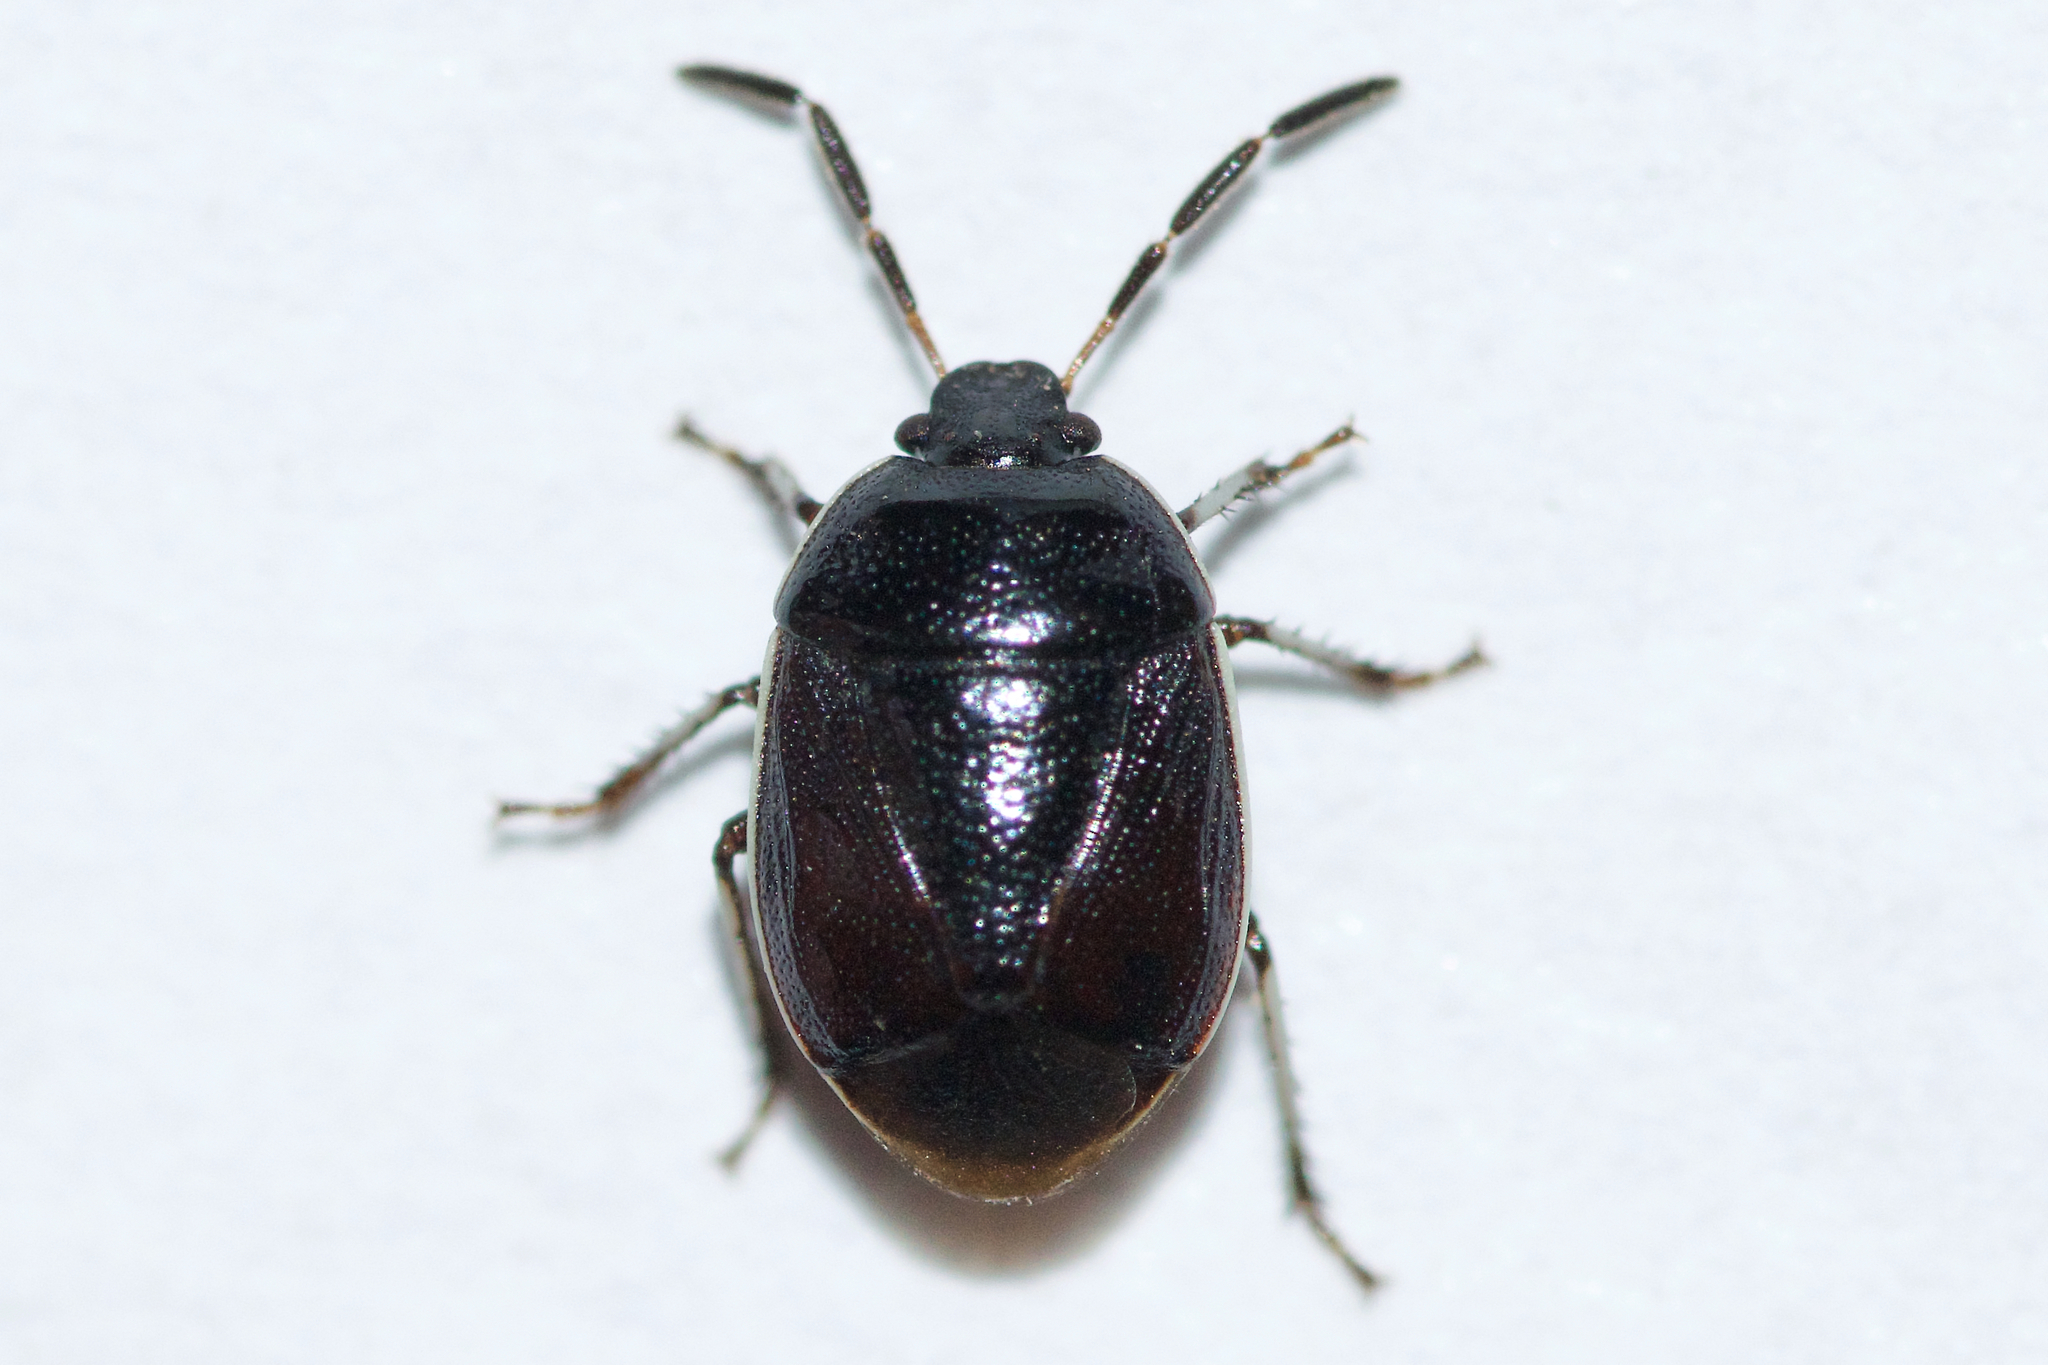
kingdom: Animalia
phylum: Arthropoda
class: Insecta
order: Hemiptera
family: Cydnidae
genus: Sehirus
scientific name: Sehirus cinctus
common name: White-margined burrower bug
